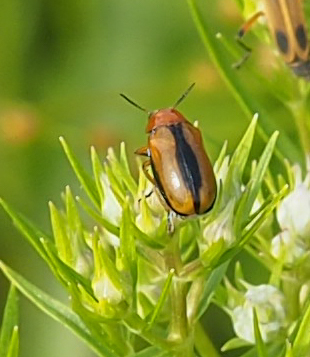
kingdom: Animalia
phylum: Arthropoda
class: Insecta
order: Coleoptera
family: Chrysomelidae
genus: Anomoea
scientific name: Anomoea laticlavia
